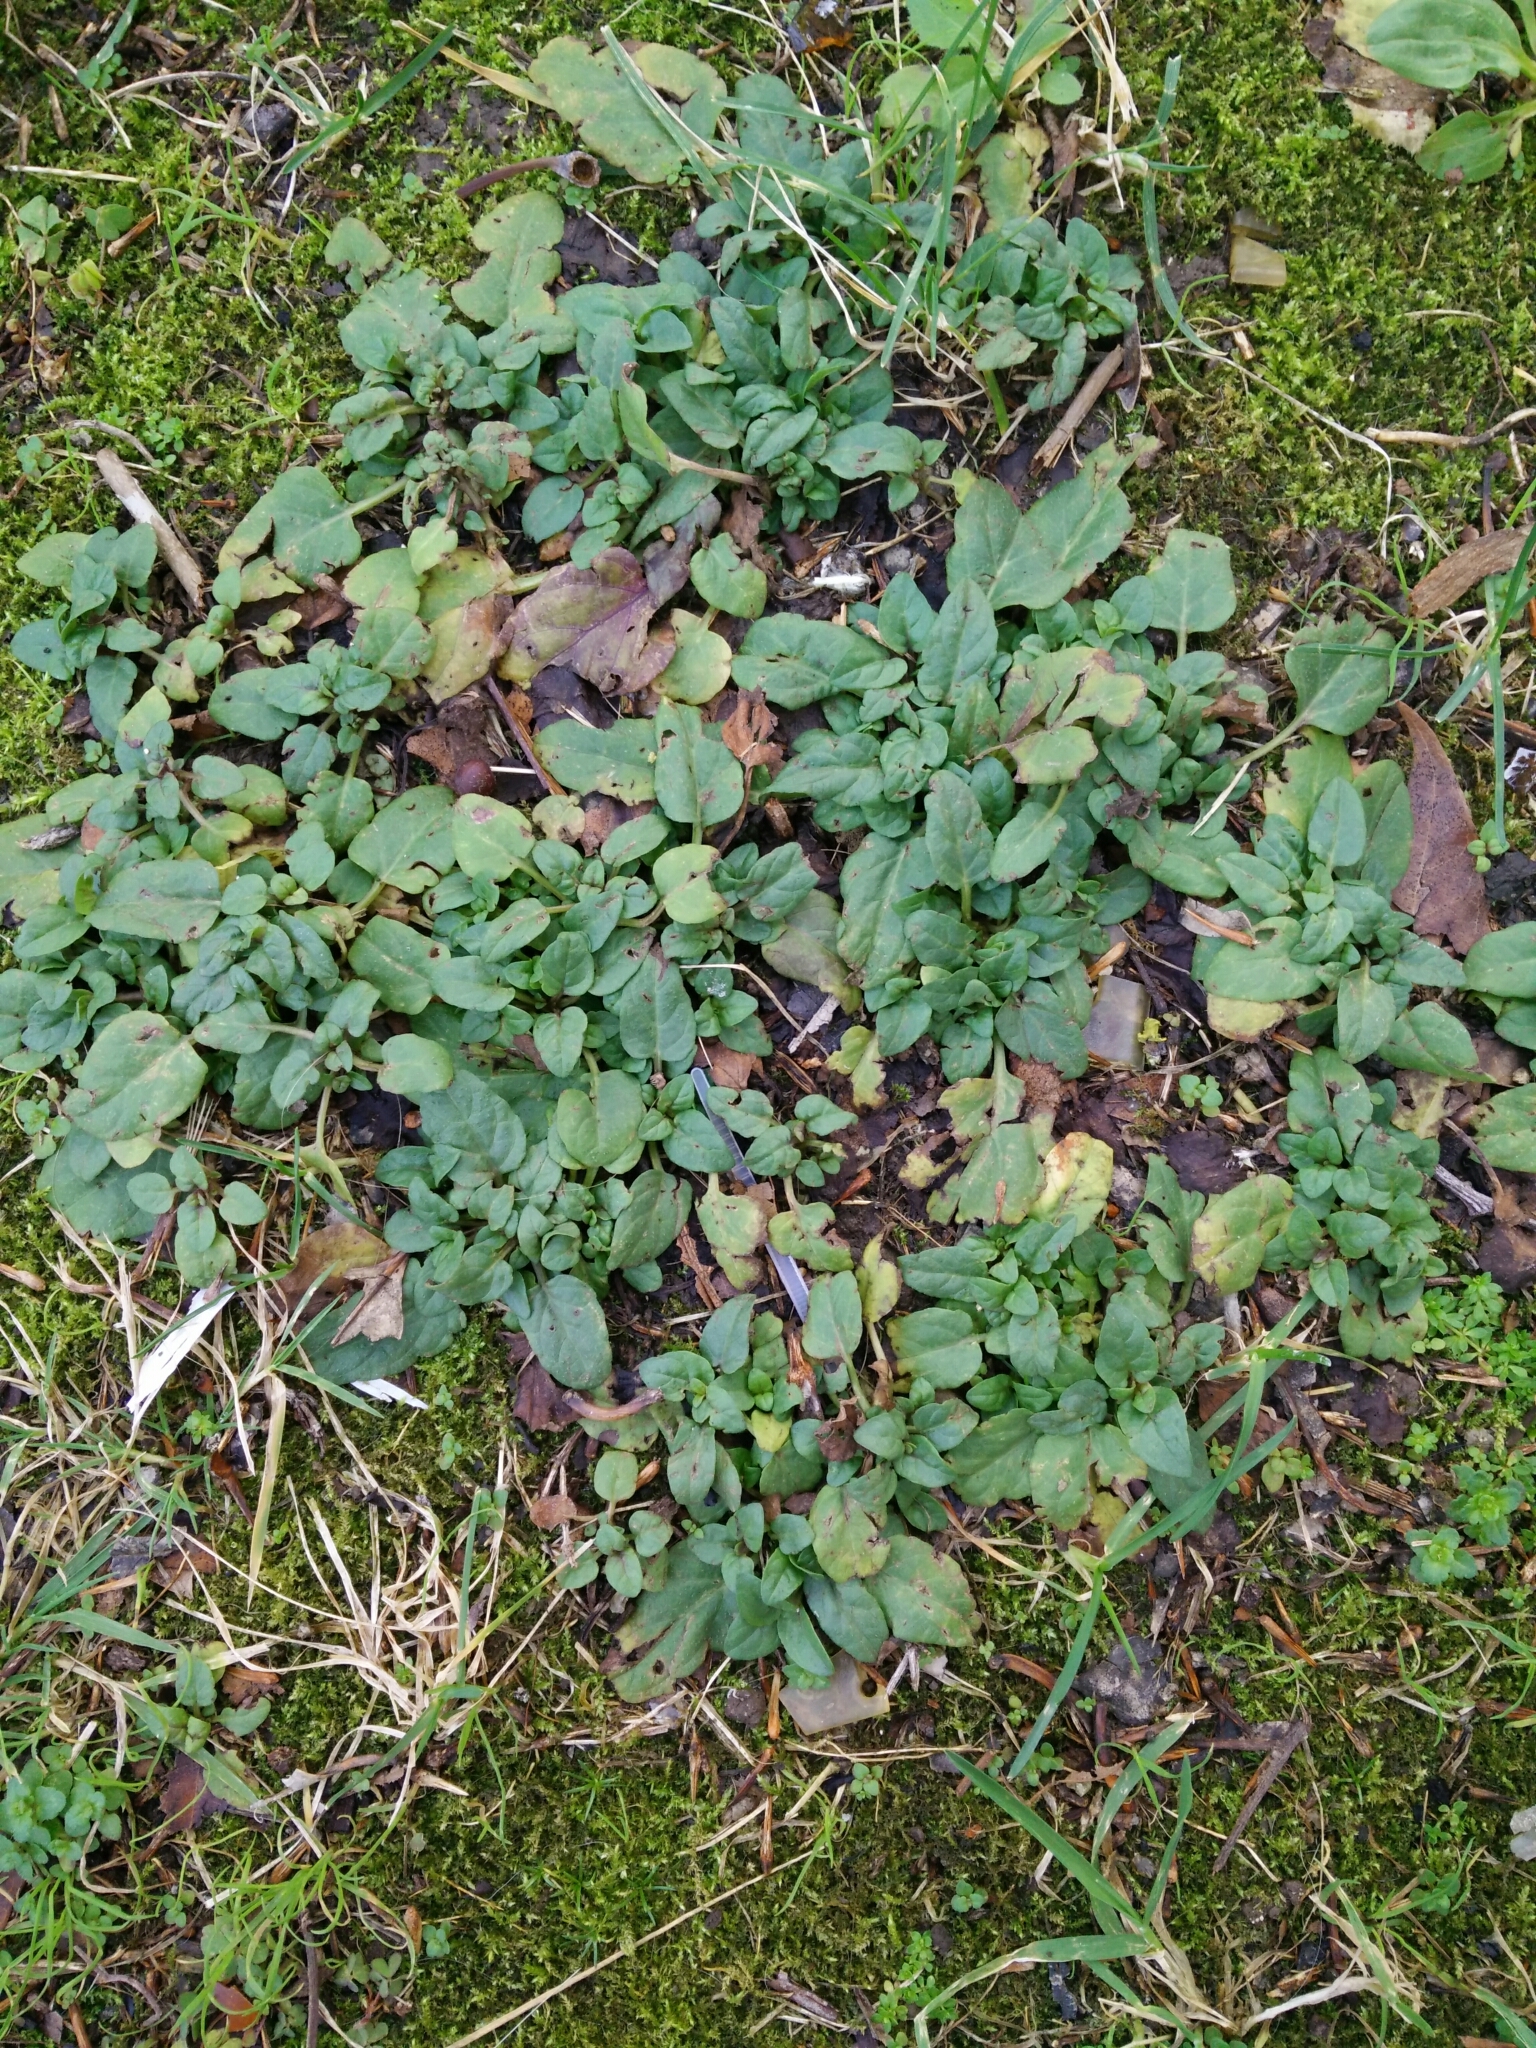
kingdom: Plantae
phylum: Tracheophyta
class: Magnoliopsida
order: Lamiales
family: Lamiaceae
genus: Prunella
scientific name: Prunella vulgaris
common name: Heal-all
